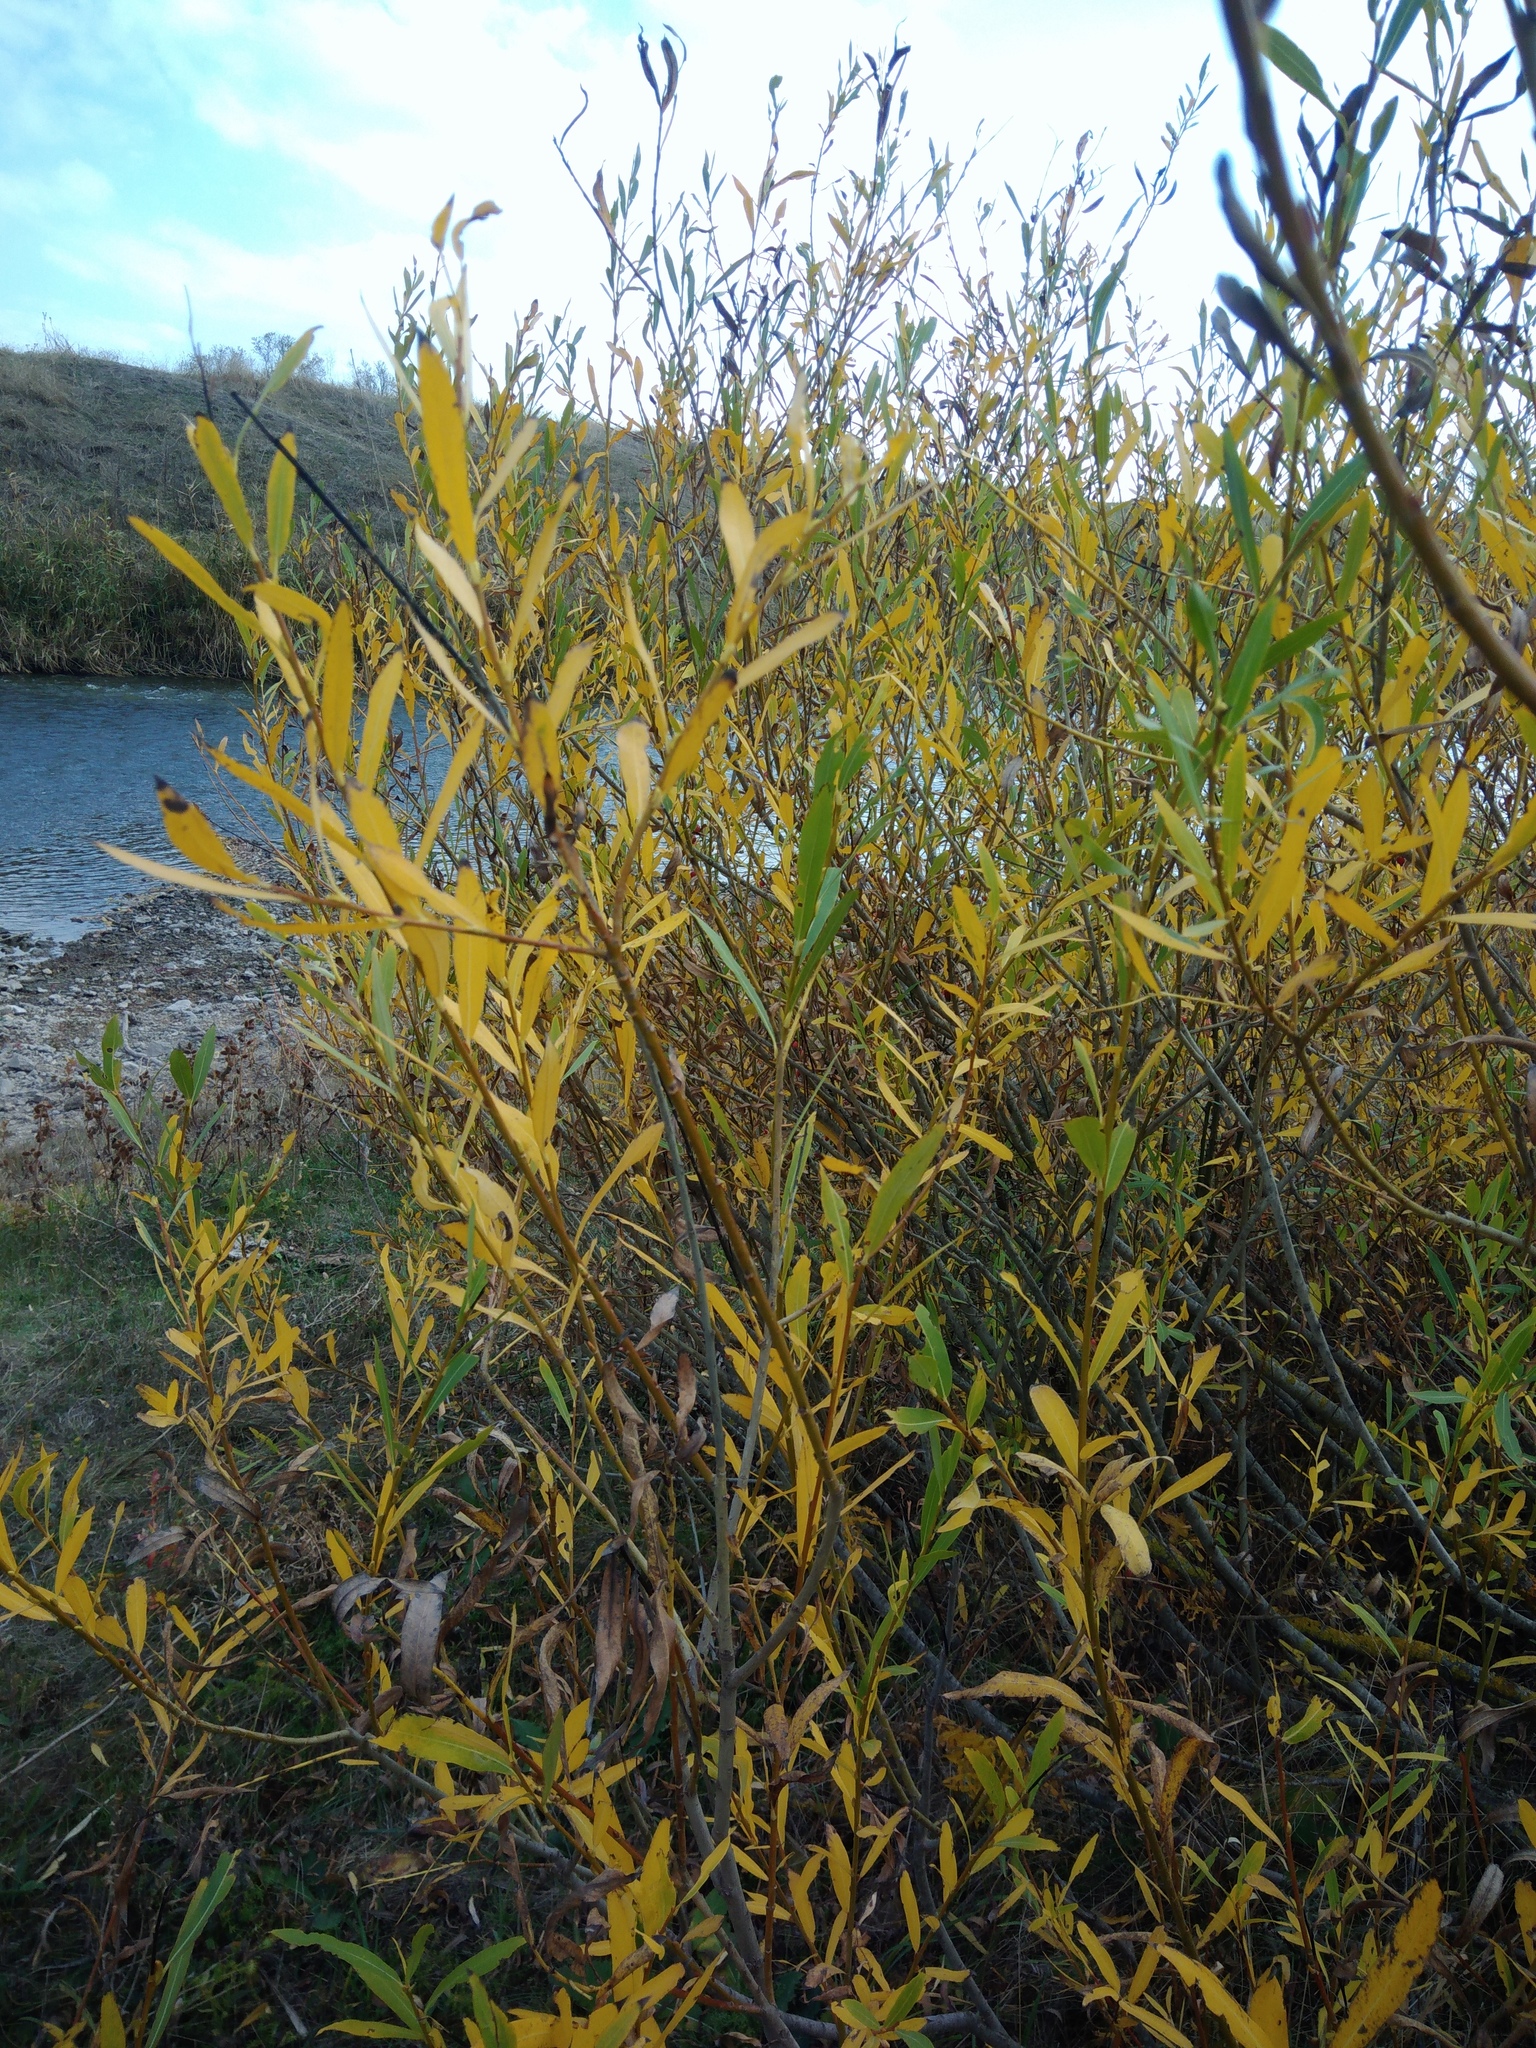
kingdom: Plantae
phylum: Tracheophyta
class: Magnoliopsida
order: Malpighiales
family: Salicaceae
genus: Salix
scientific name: Salix triandra
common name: Almond willow
